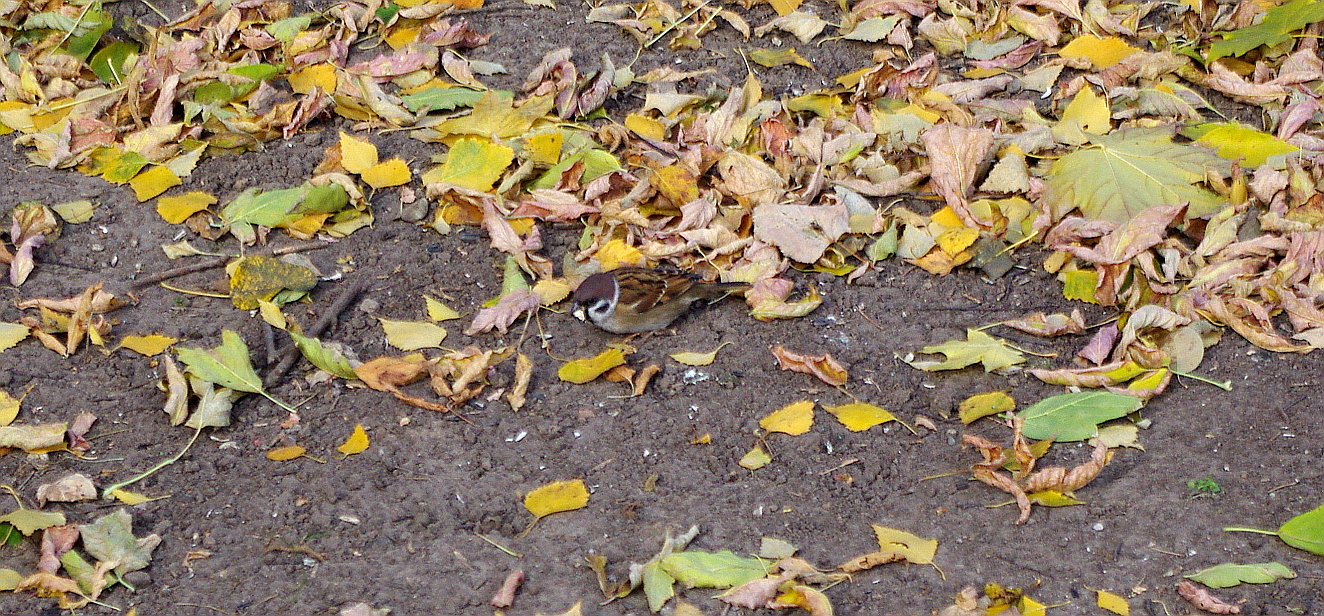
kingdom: Animalia
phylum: Chordata
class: Aves
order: Passeriformes
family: Passeridae
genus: Passer
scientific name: Passer montanus
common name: Eurasian tree sparrow
